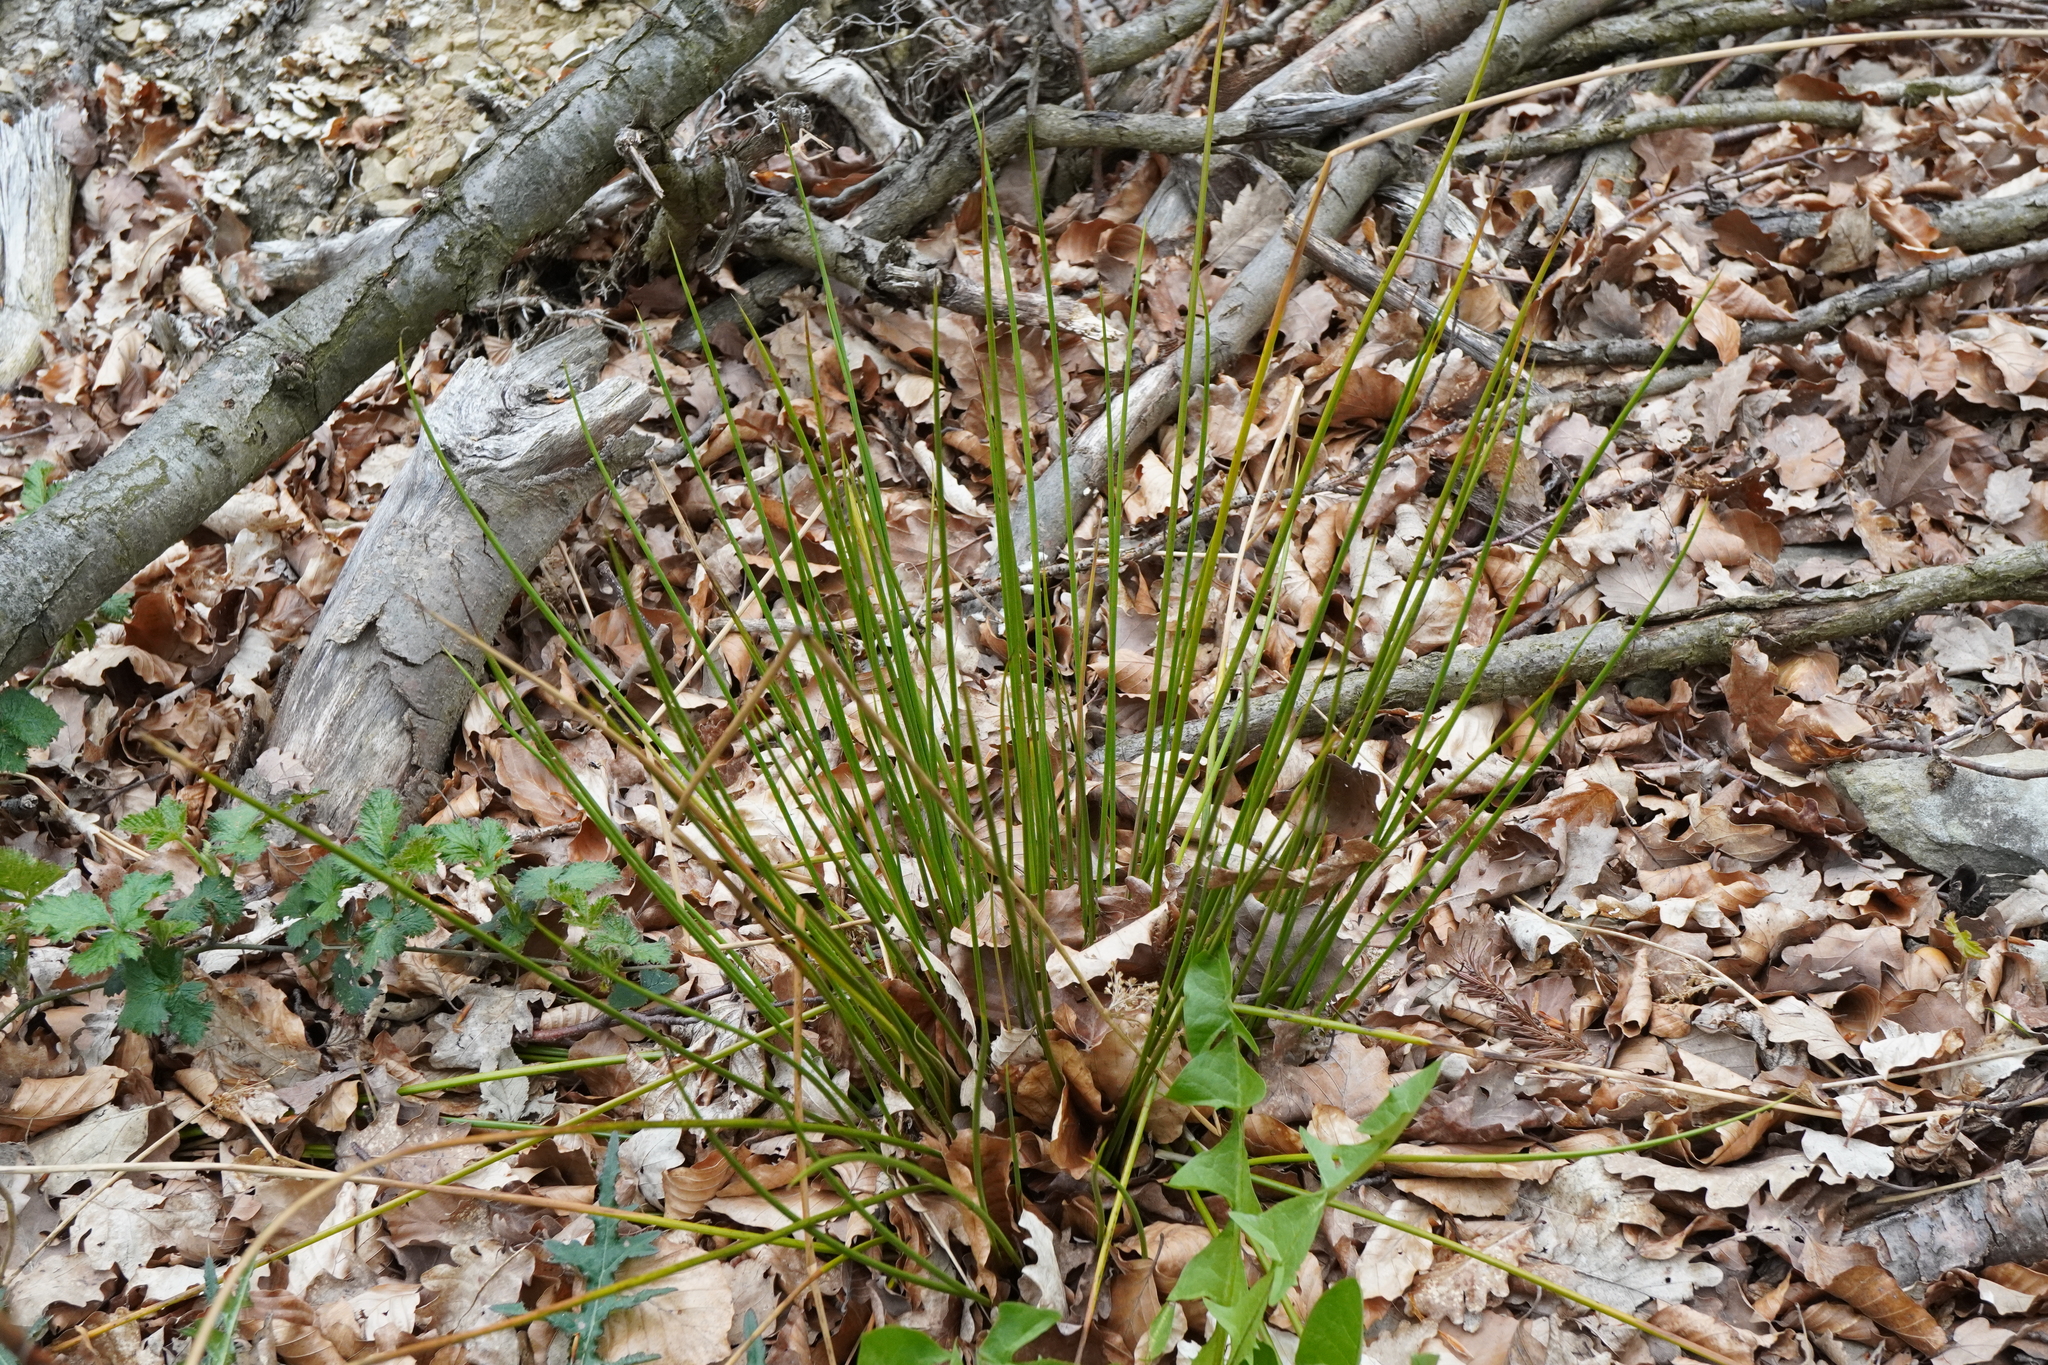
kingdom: Plantae
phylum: Tracheophyta
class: Liliopsida
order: Poales
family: Juncaceae
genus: Juncus
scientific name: Juncus effusus
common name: Soft rush
